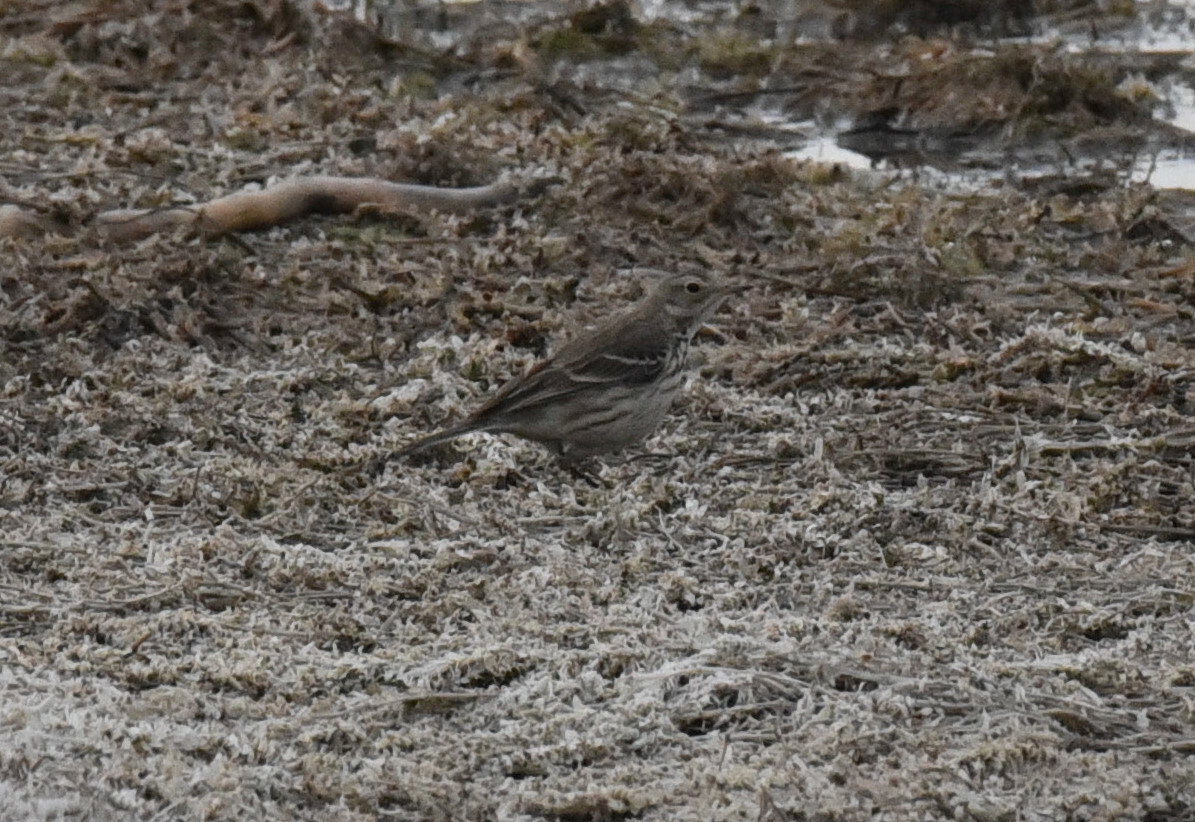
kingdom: Animalia
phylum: Chordata
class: Aves
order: Passeriformes
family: Motacillidae
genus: Anthus
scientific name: Anthus rubescens
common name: Buff-bellied pipit
